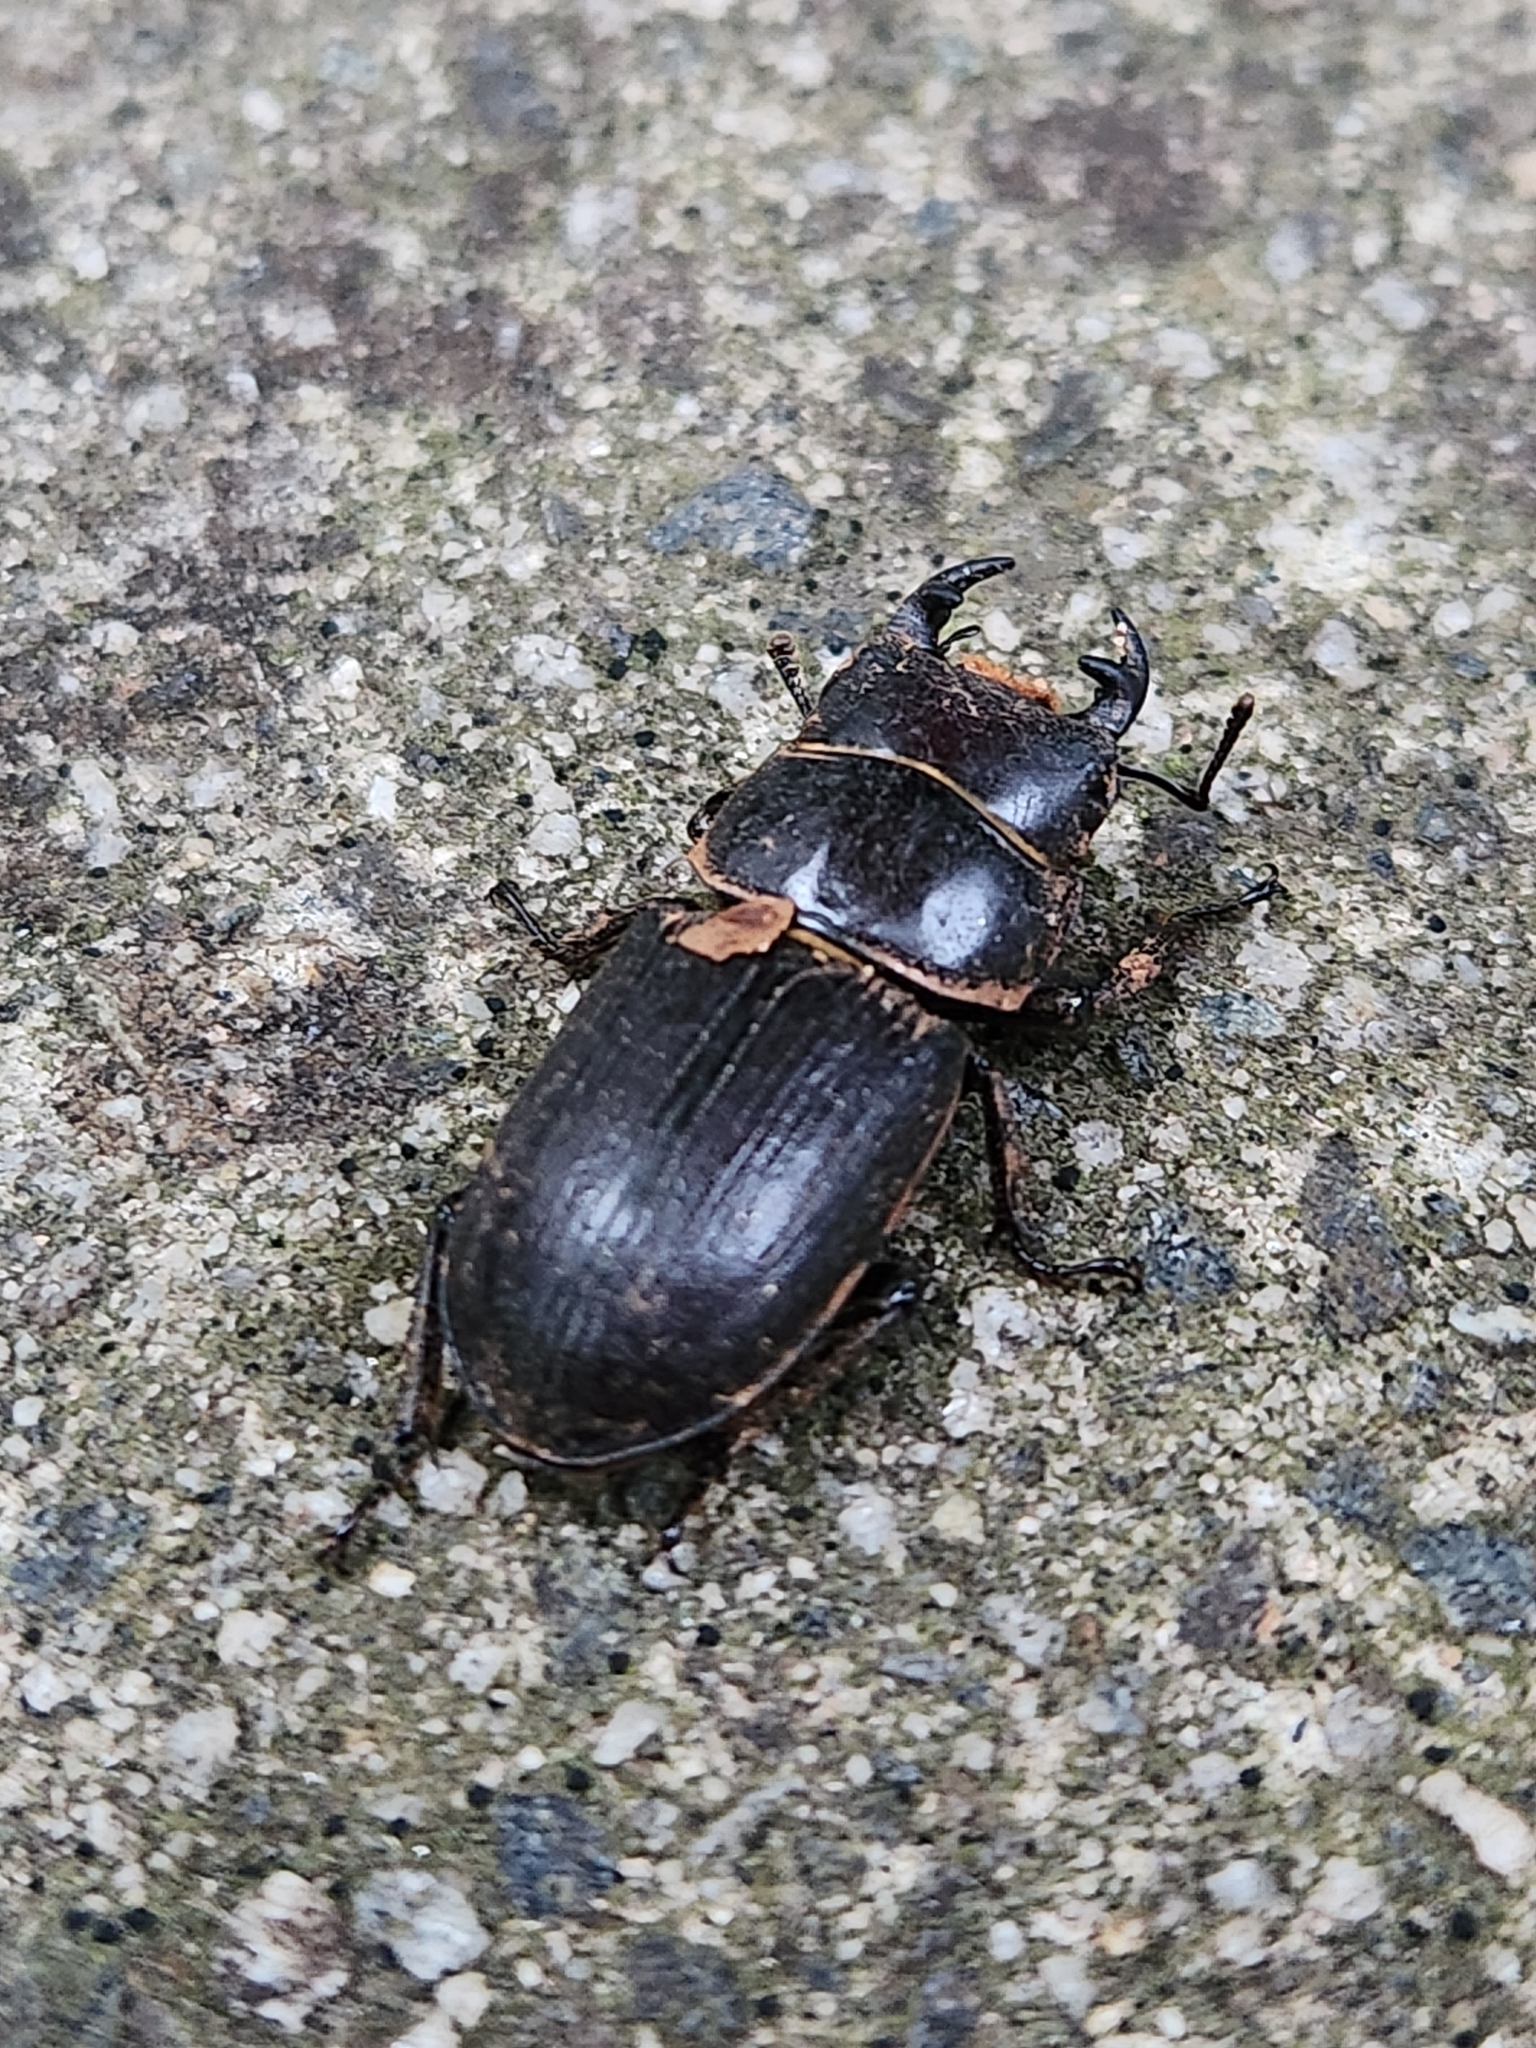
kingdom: Animalia
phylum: Arthropoda
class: Insecta
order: Coleoptera
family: Lucanidae
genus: Dorcus
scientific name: Dorcus parallelus
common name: Antelope beetle
